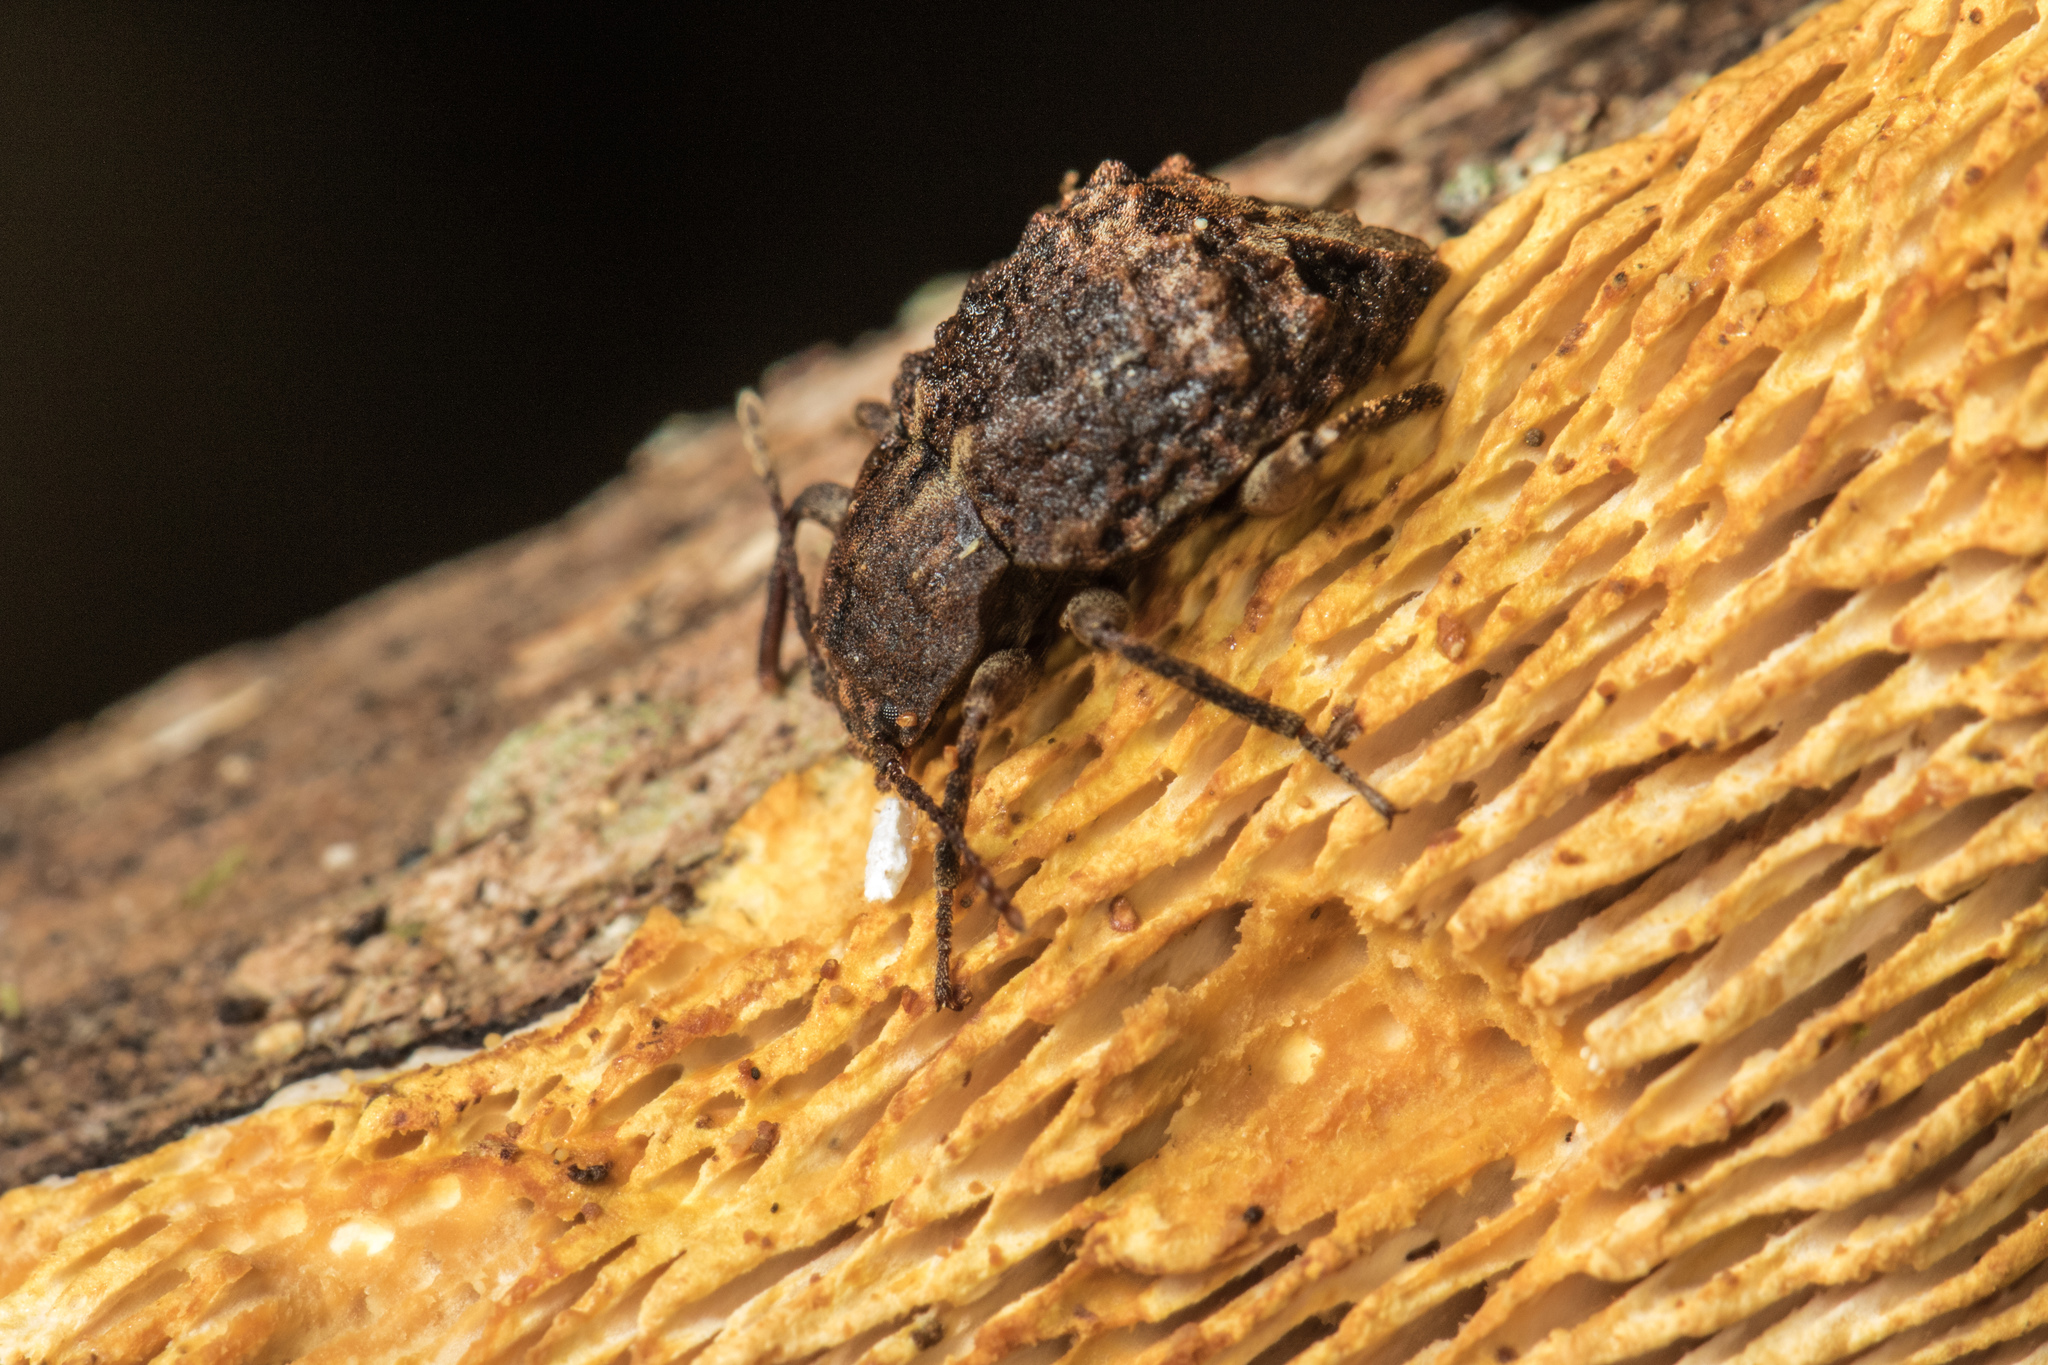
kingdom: Animalia
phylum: Arthropoda
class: Insecta
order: Coleoptera
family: Ulodidae
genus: Syrphetodes
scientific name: Syrphetodes
